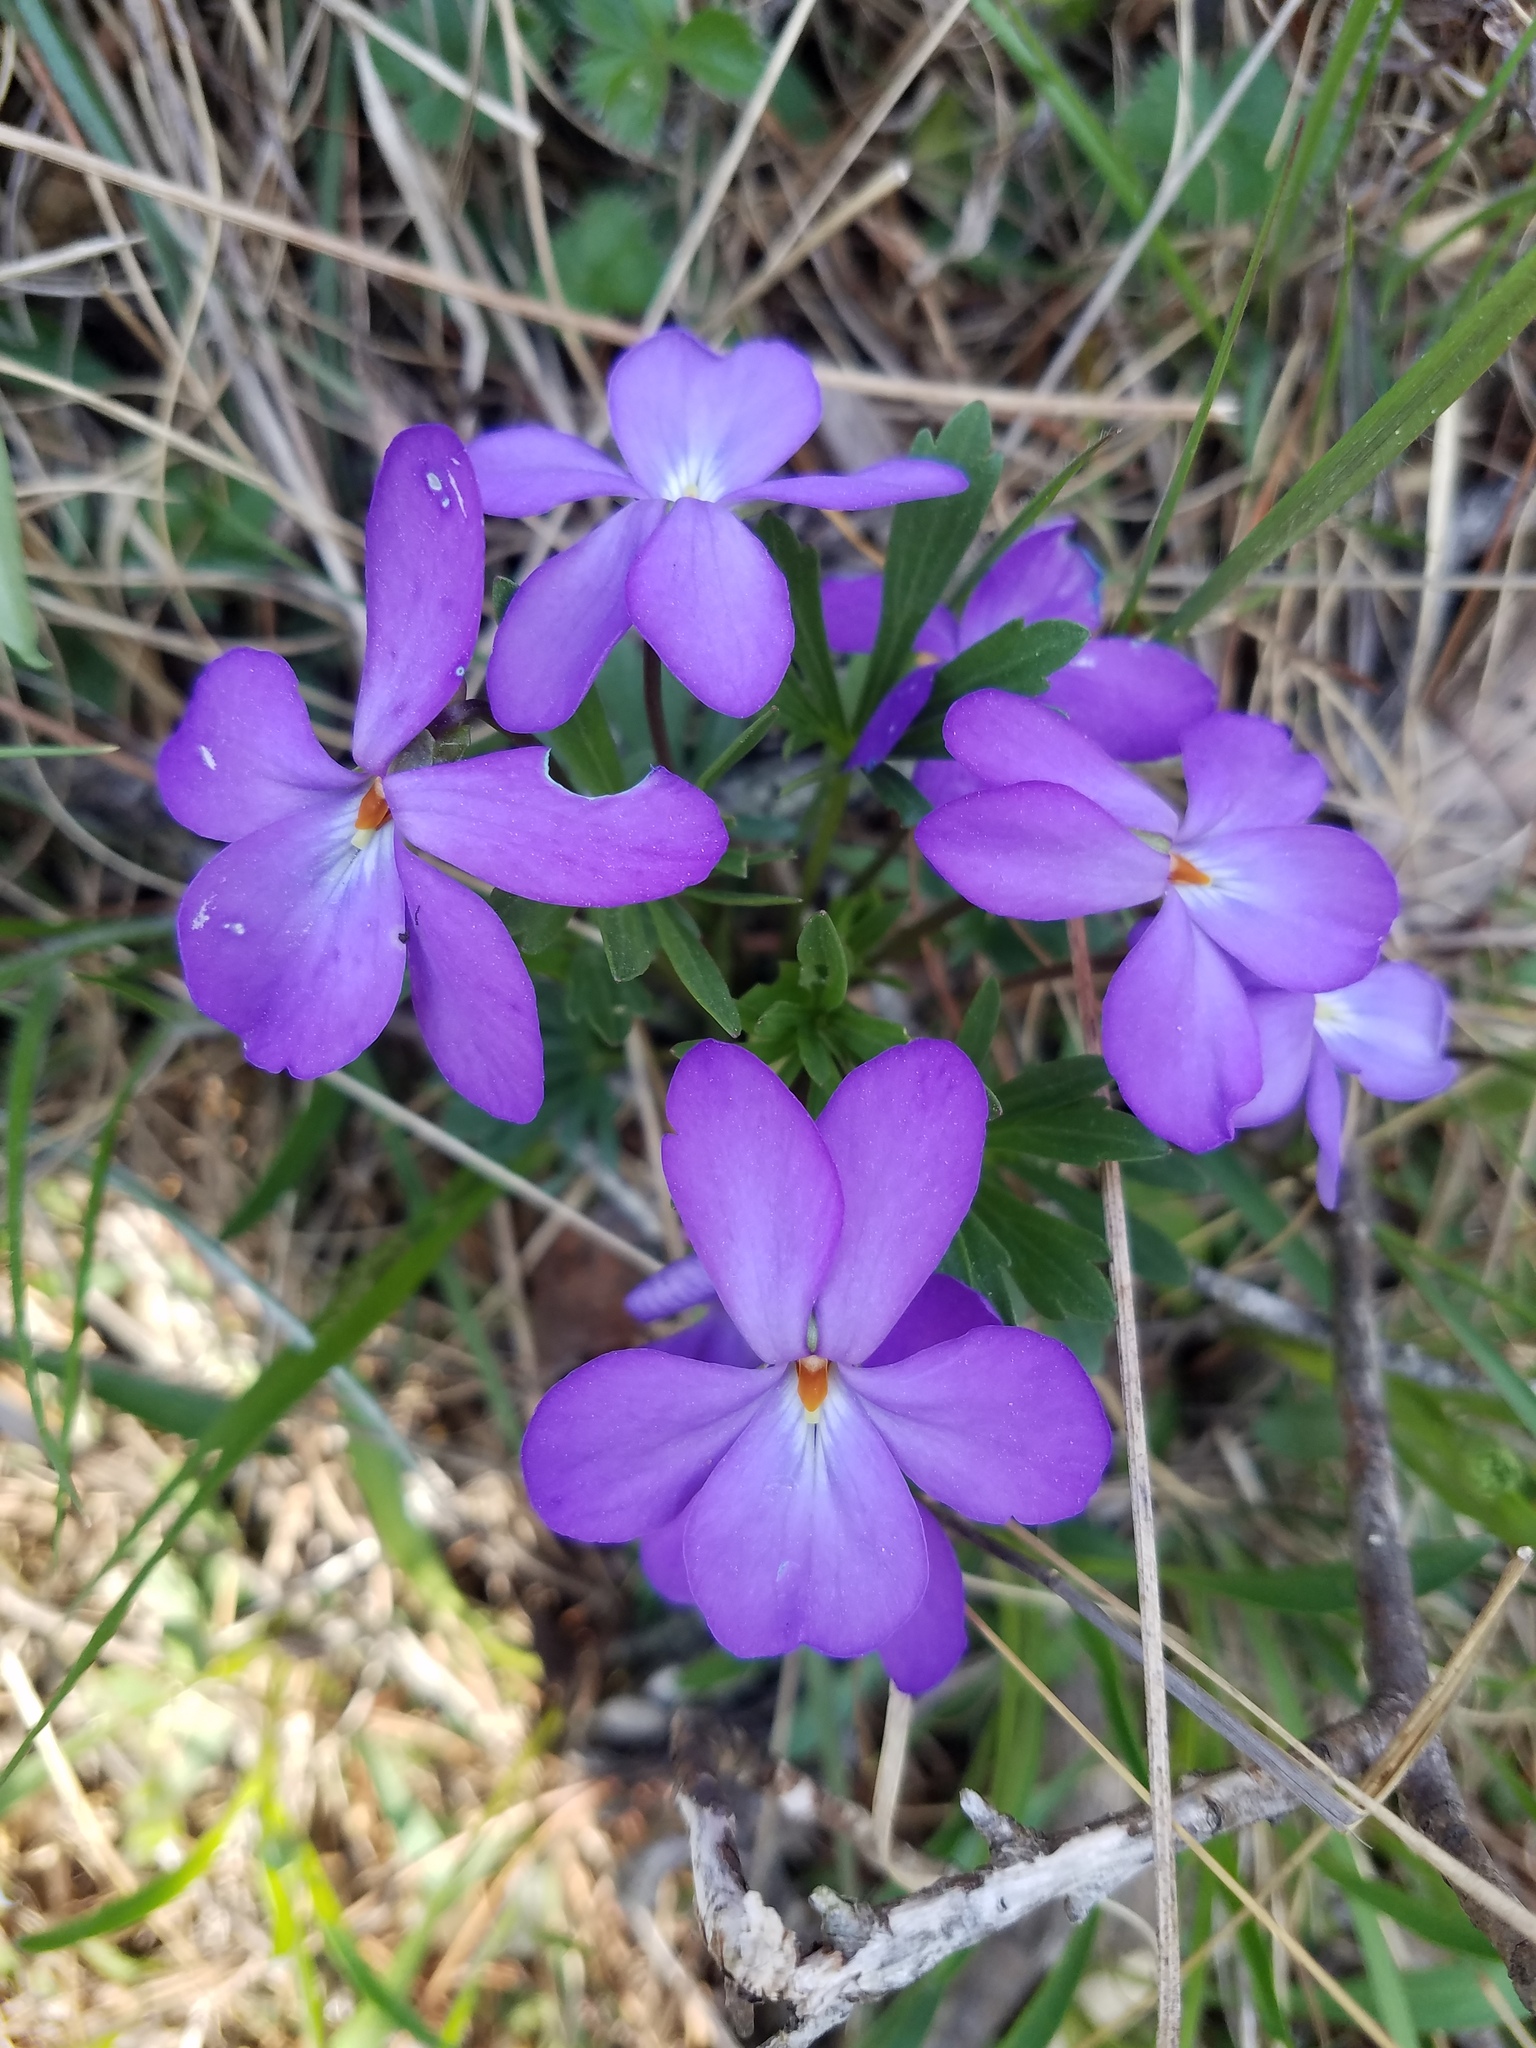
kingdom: Plantae
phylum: Tracheophyta
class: Magnoliopsida
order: Malpighiales
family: Violaceae
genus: Viola
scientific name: Viola pedata
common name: Pansy violet
